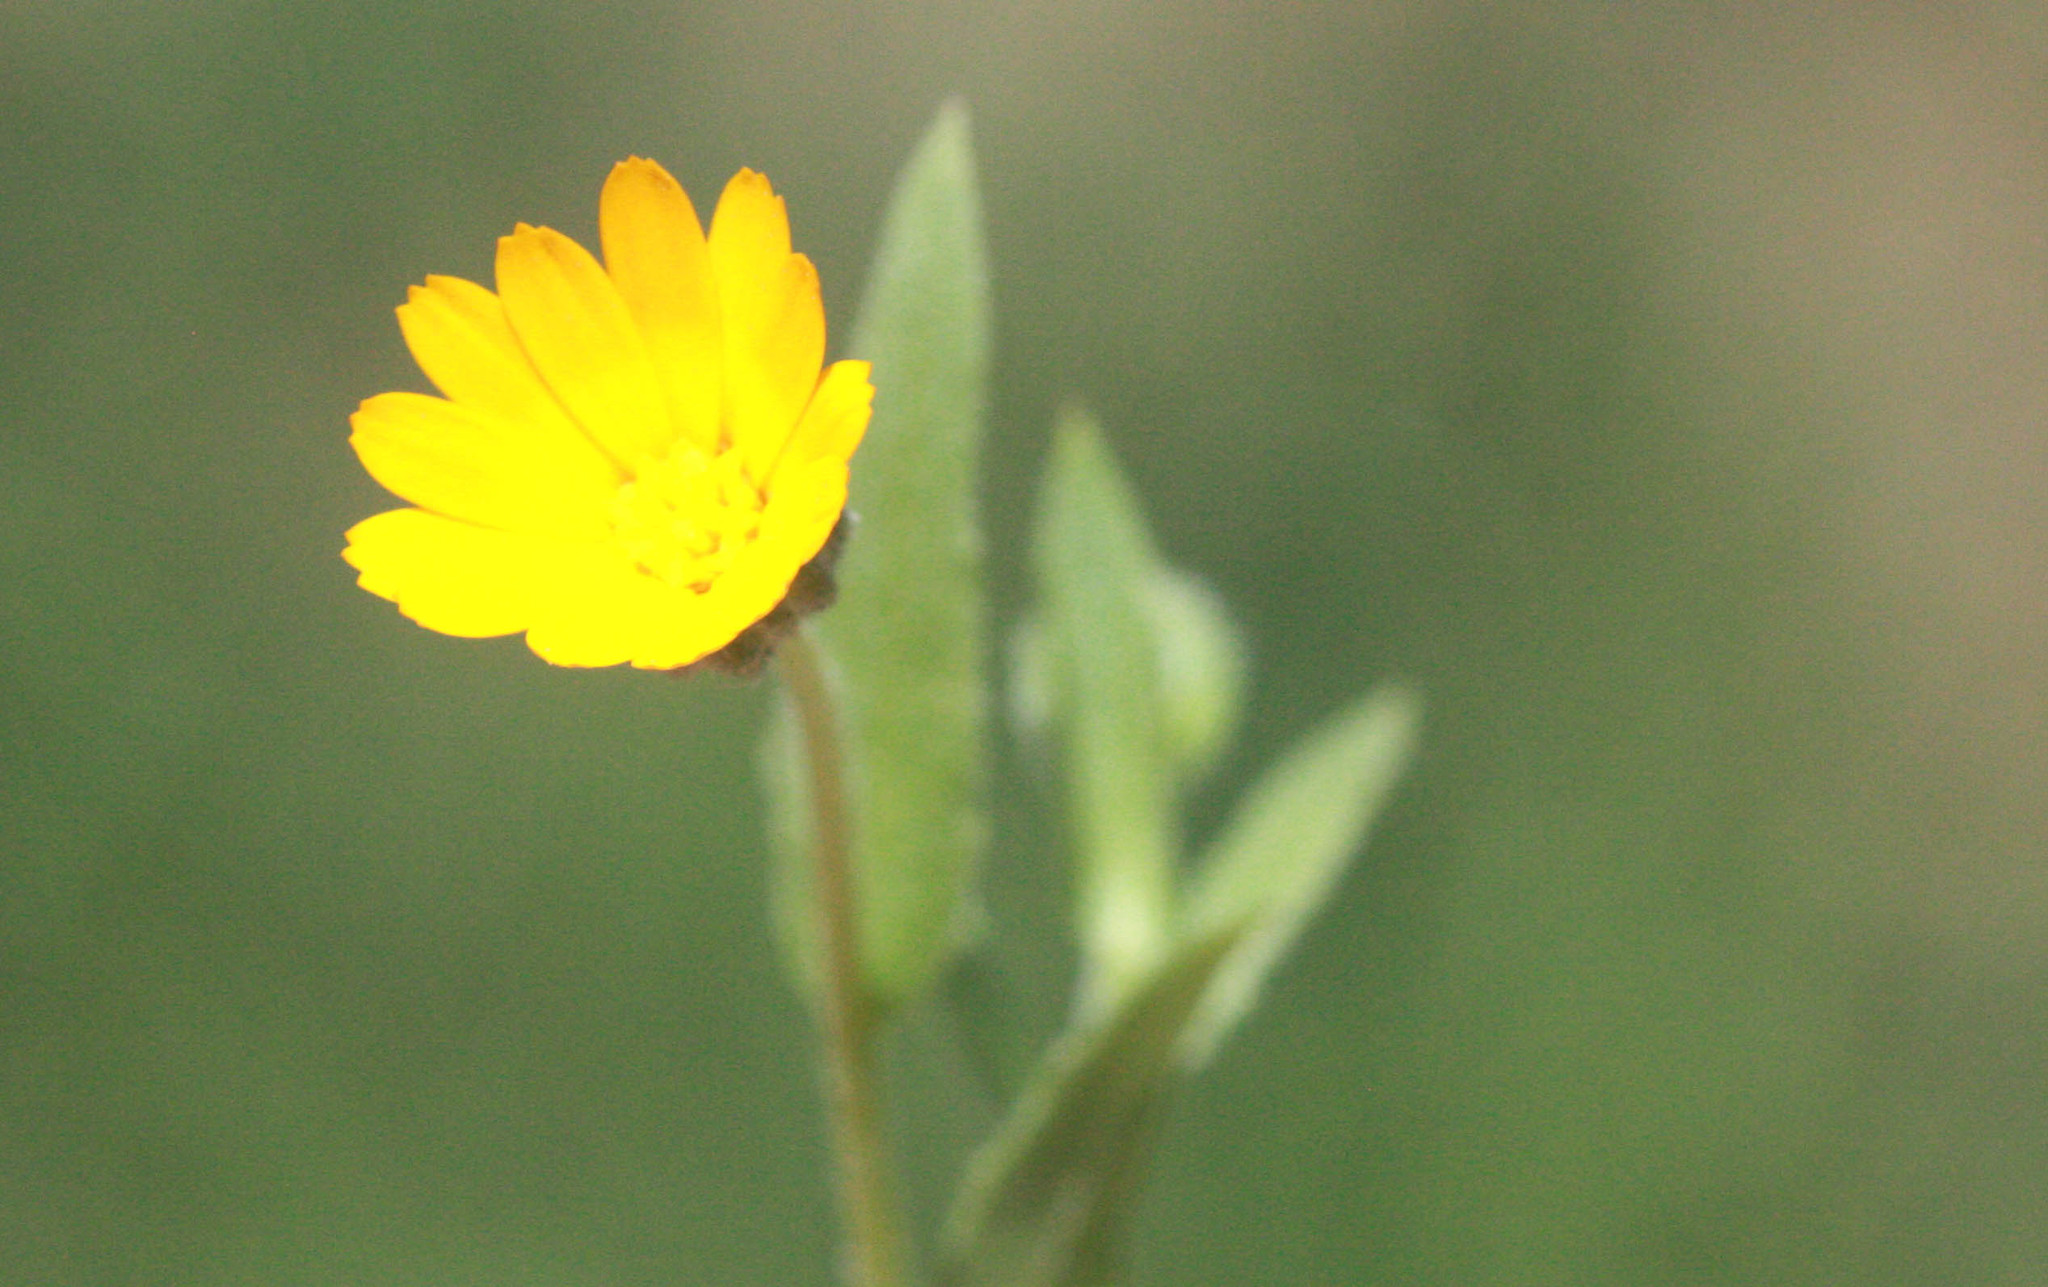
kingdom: Plantae
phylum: Tracheophyta
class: Magnoliopsida
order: Asterales
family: Asteraceae
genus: Calendula
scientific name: Calendula arvensis
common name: Field marigold
